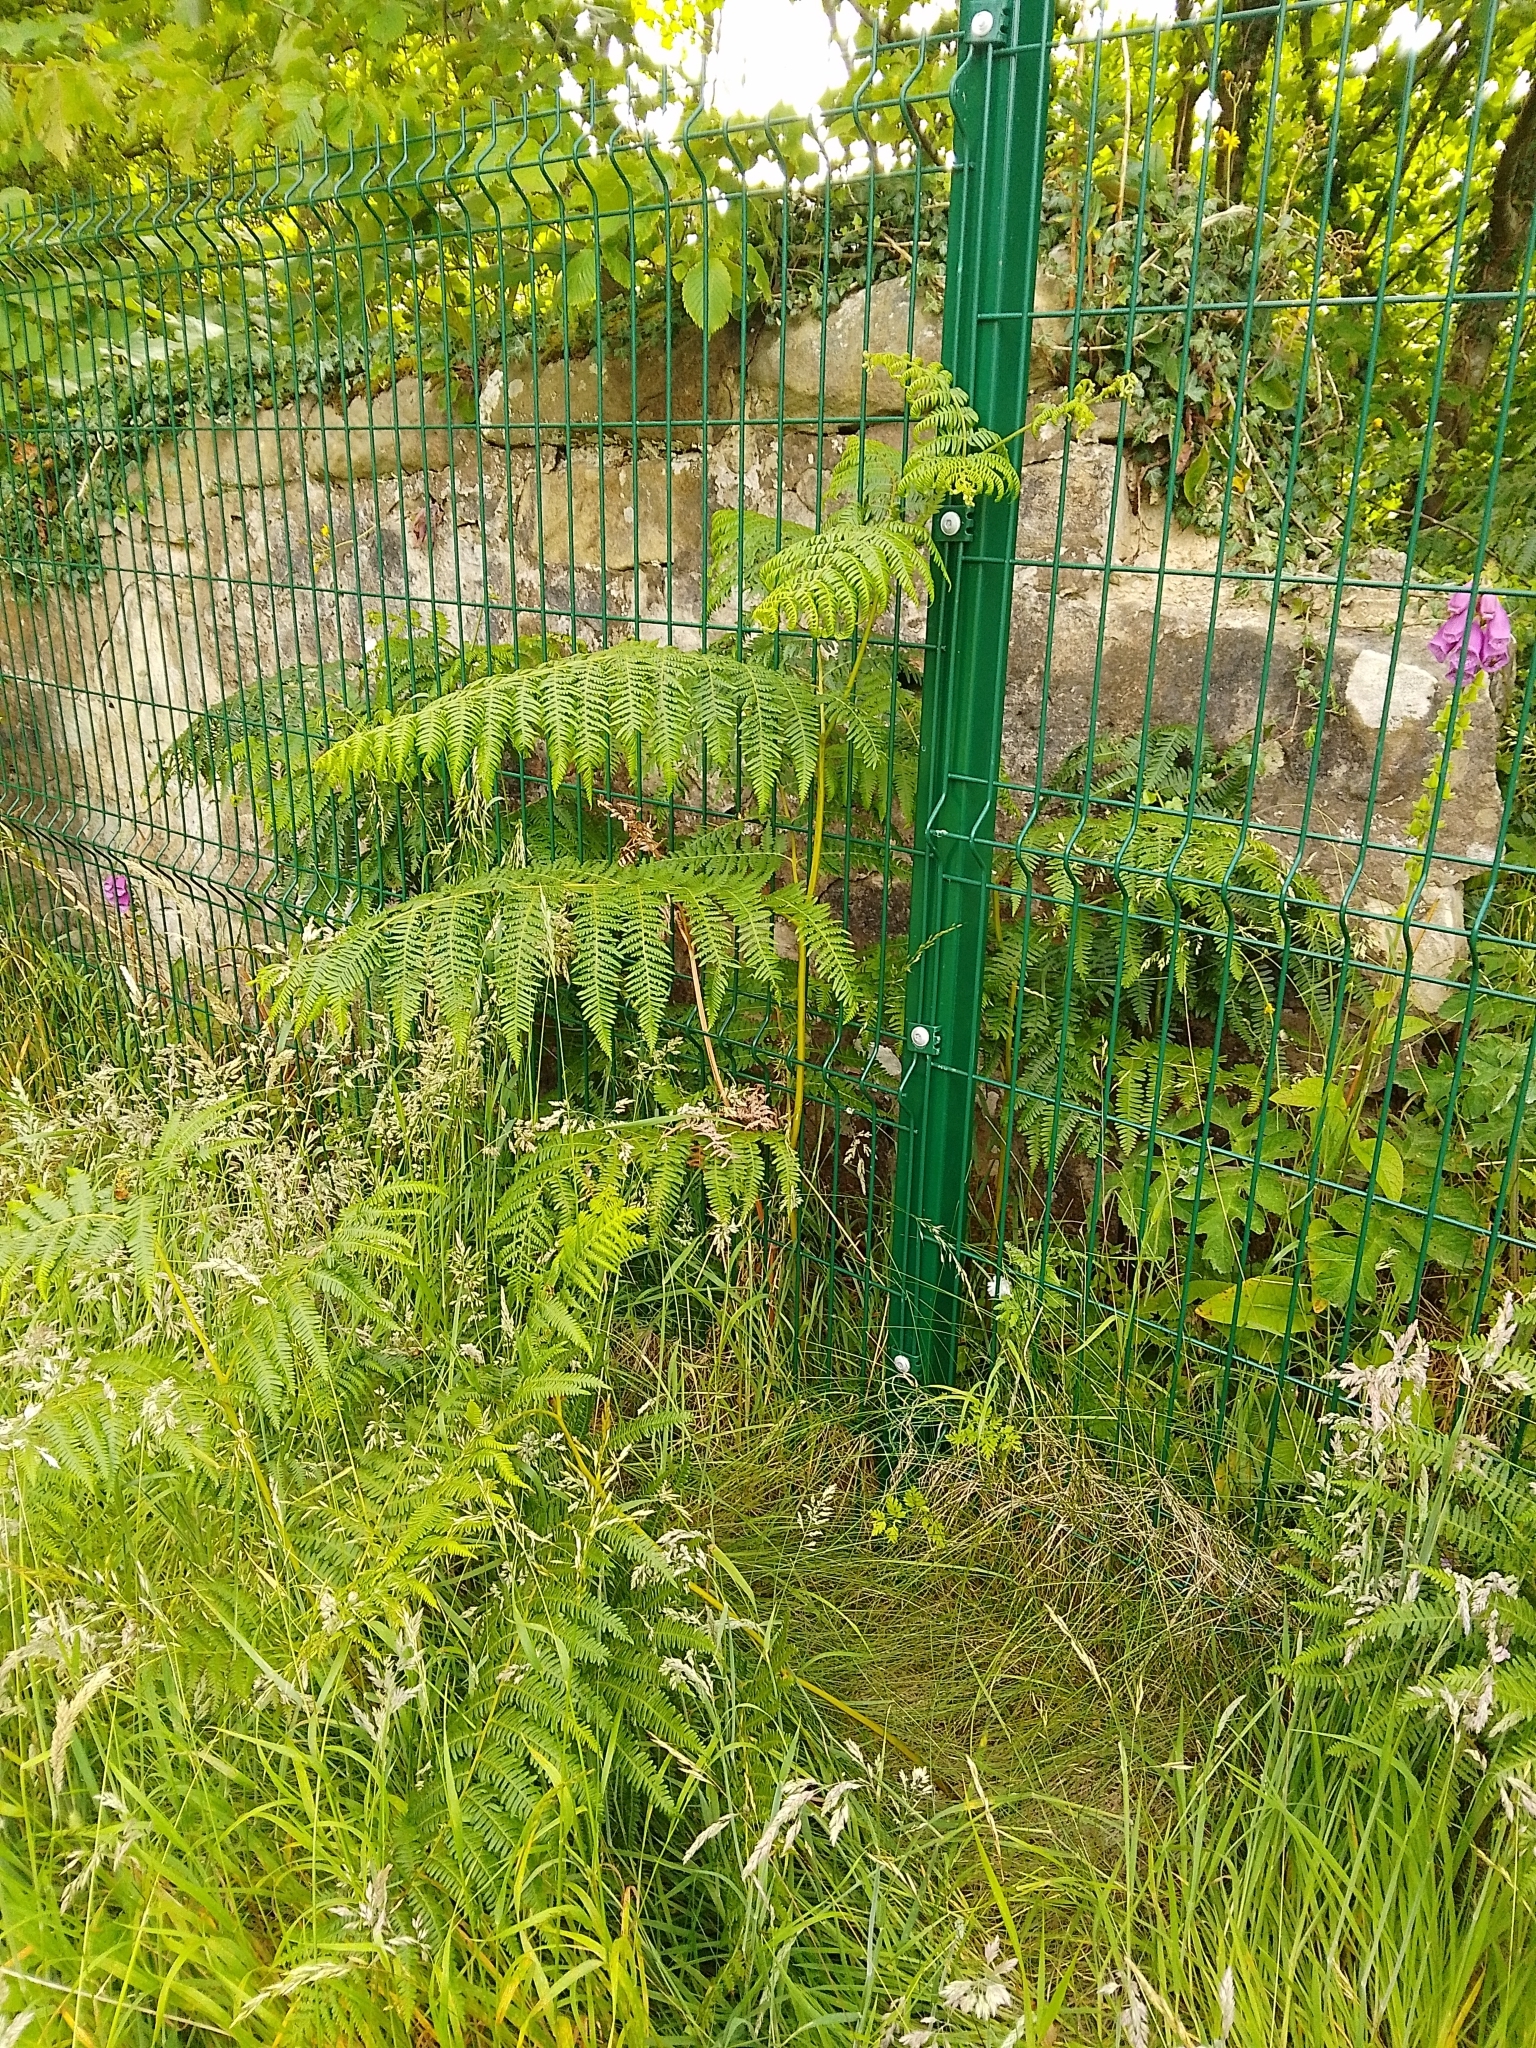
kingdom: Plantae
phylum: Tracheophyta
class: Polypodiopsida
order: Polypodiales
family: Dennstaedtiaceae
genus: Pteridium
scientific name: Pteridium aquilinum
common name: Bracken
